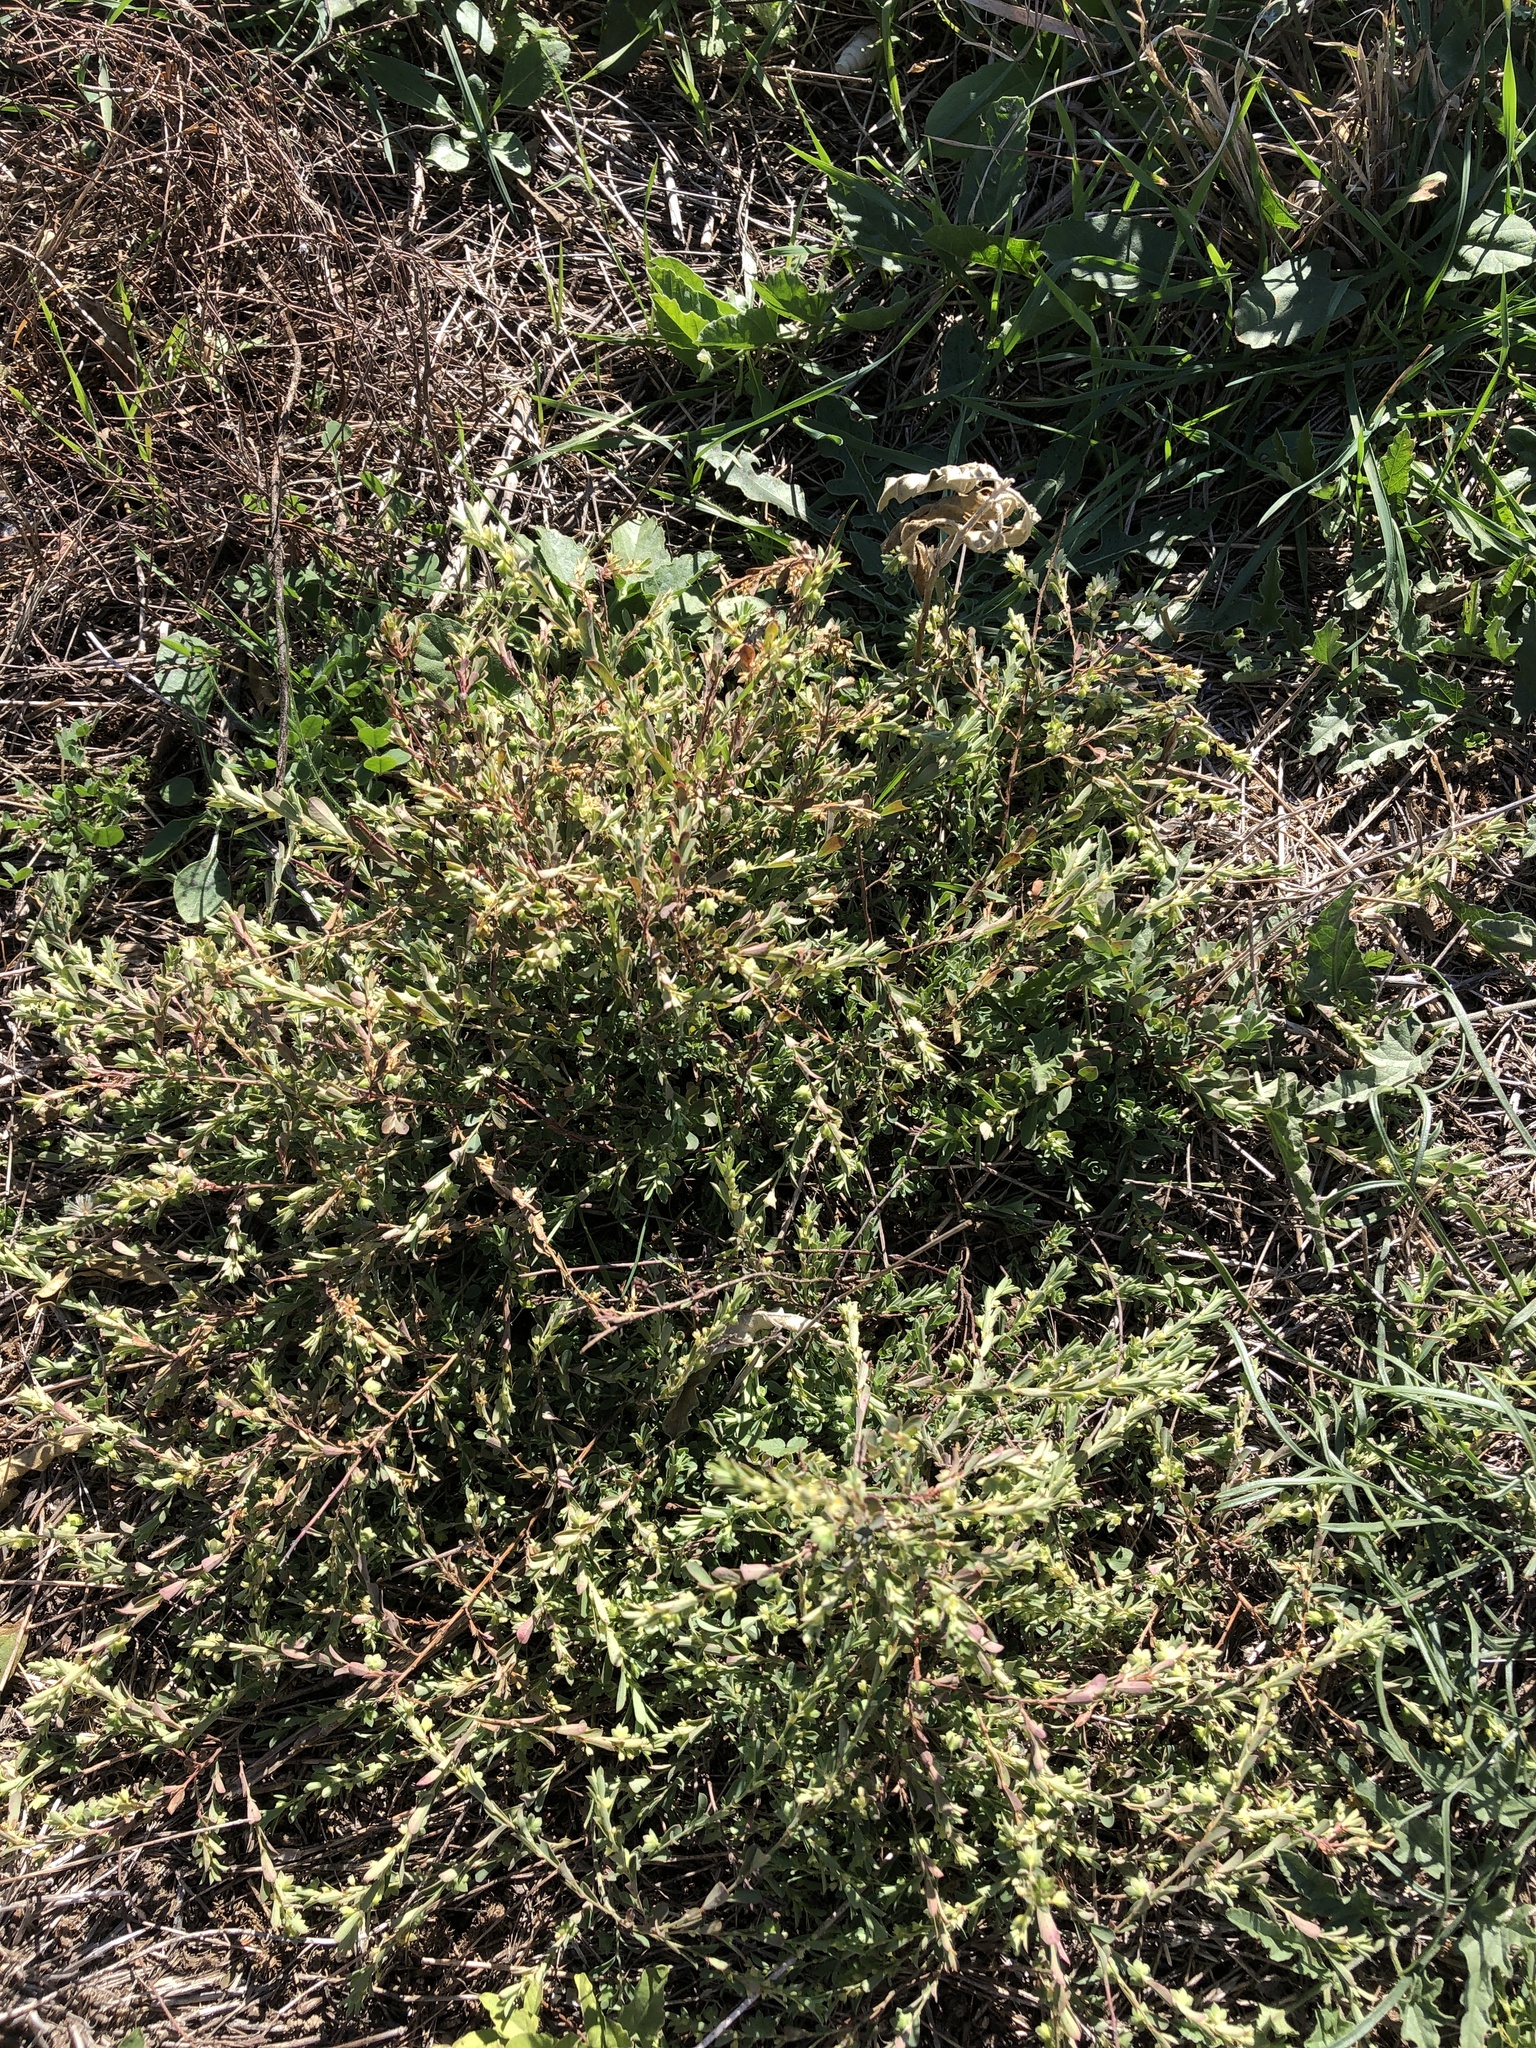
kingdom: Plantae
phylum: Tracheophyta
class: Magnoliopsida
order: Malpighiales
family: Phyllanthaceae
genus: Phyllanthus
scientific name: Phyllanthus polygonoides
